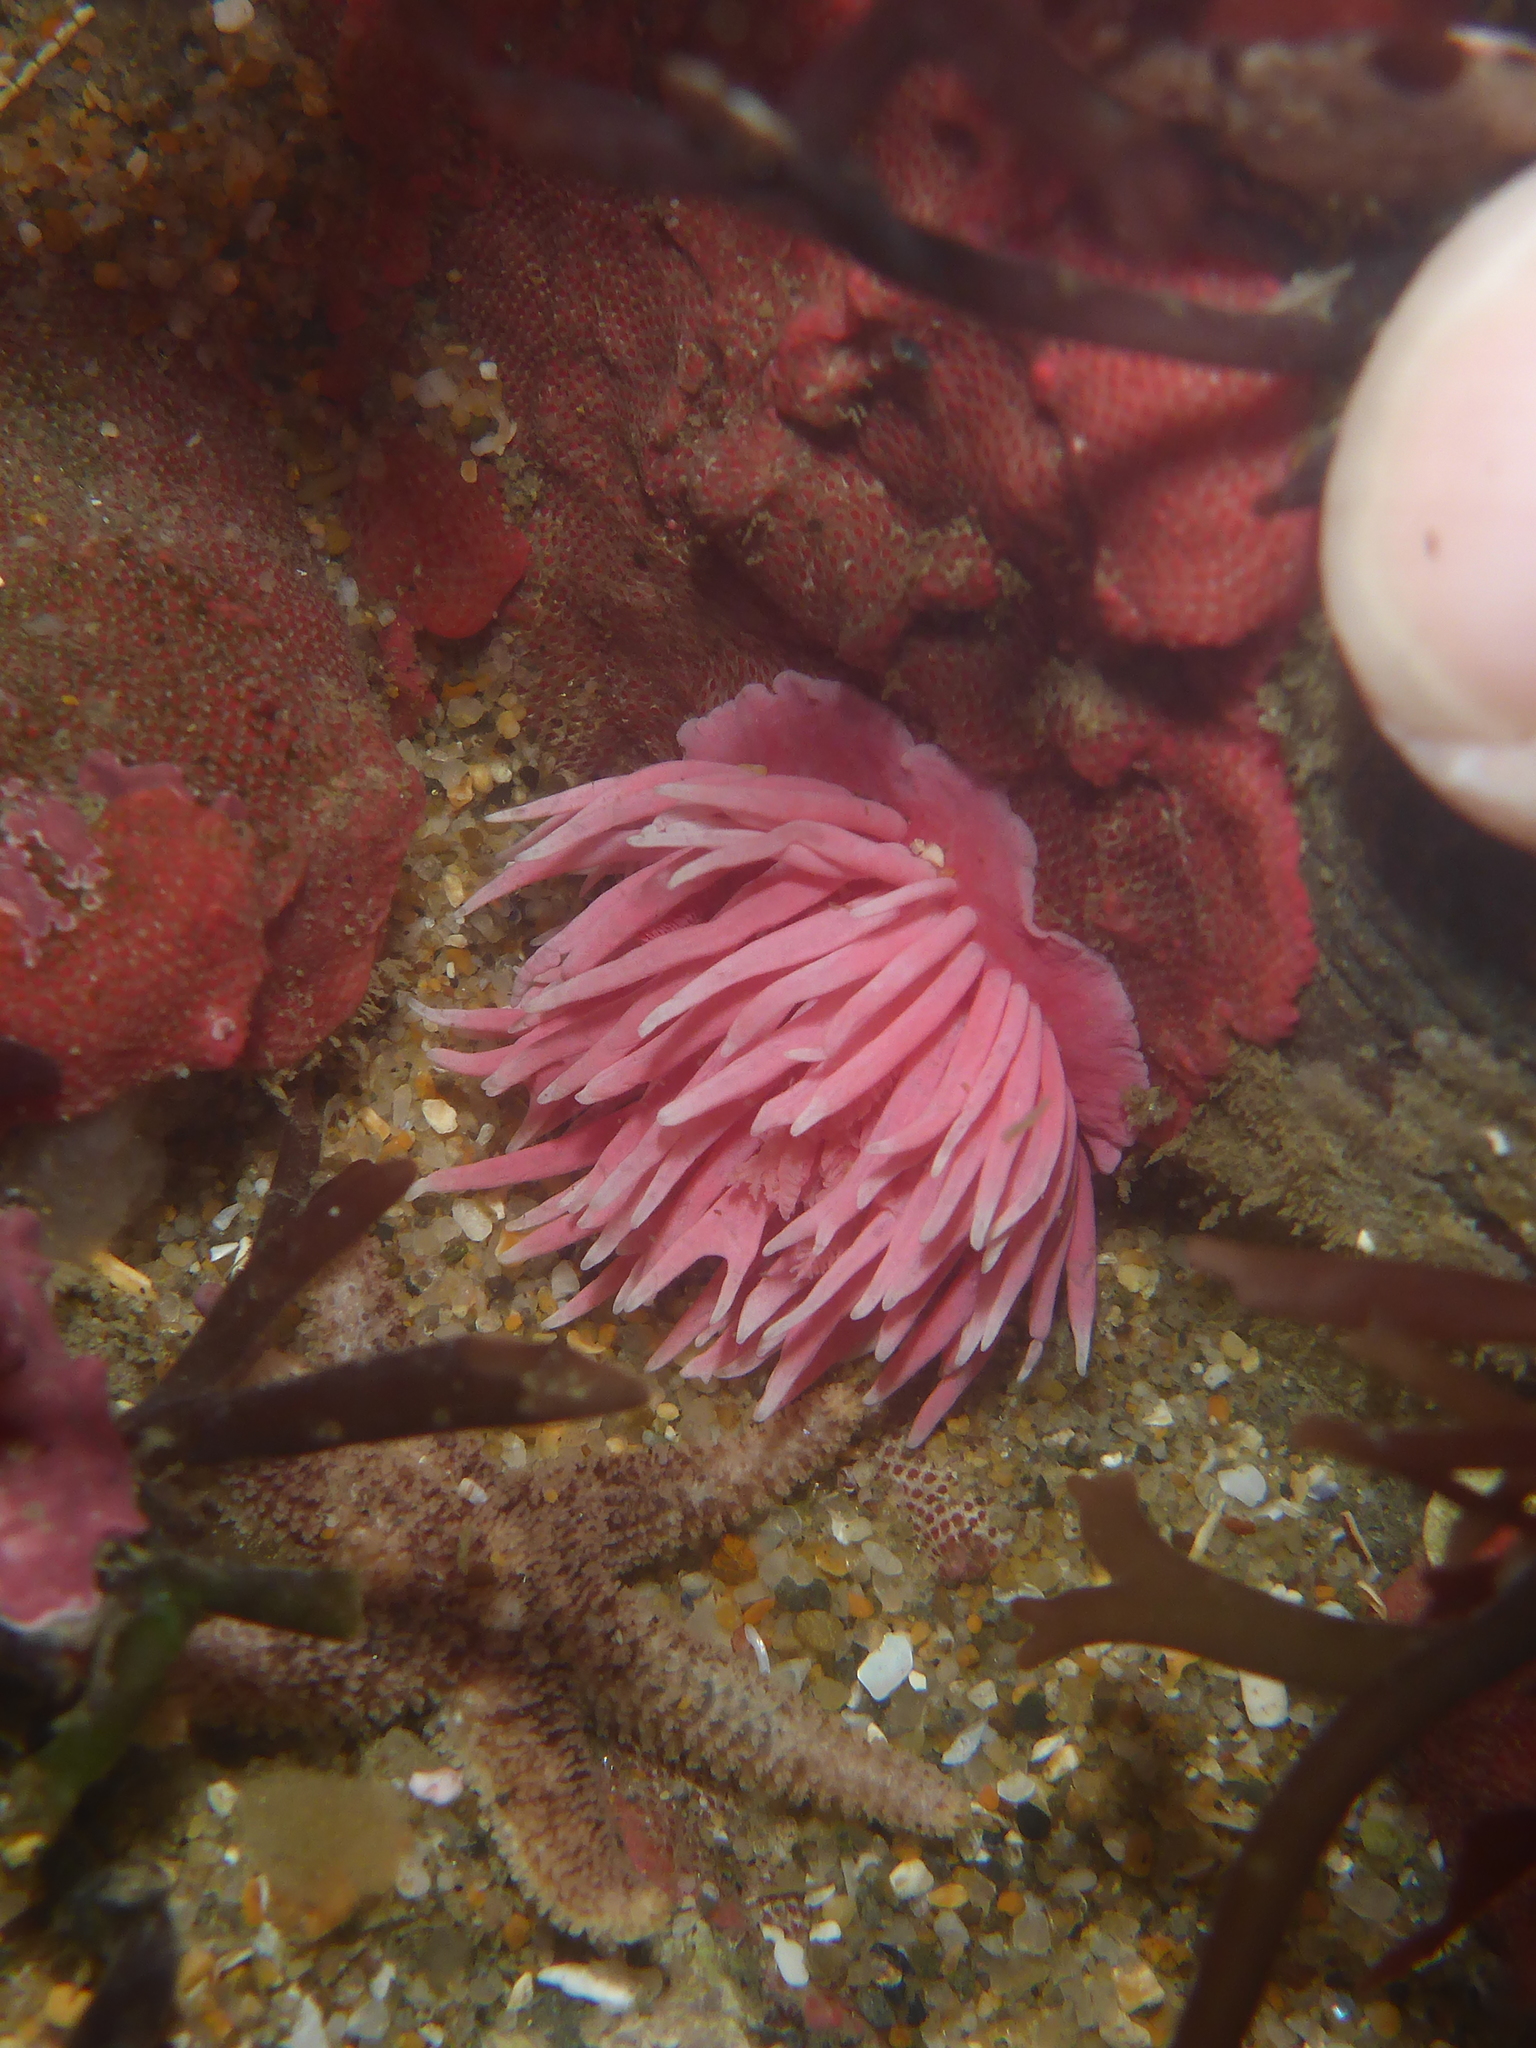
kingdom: Animalia
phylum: Mollusca
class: Gastropoda
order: Nudibranchia
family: Goniodorididae
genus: Okenia
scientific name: Okenia
